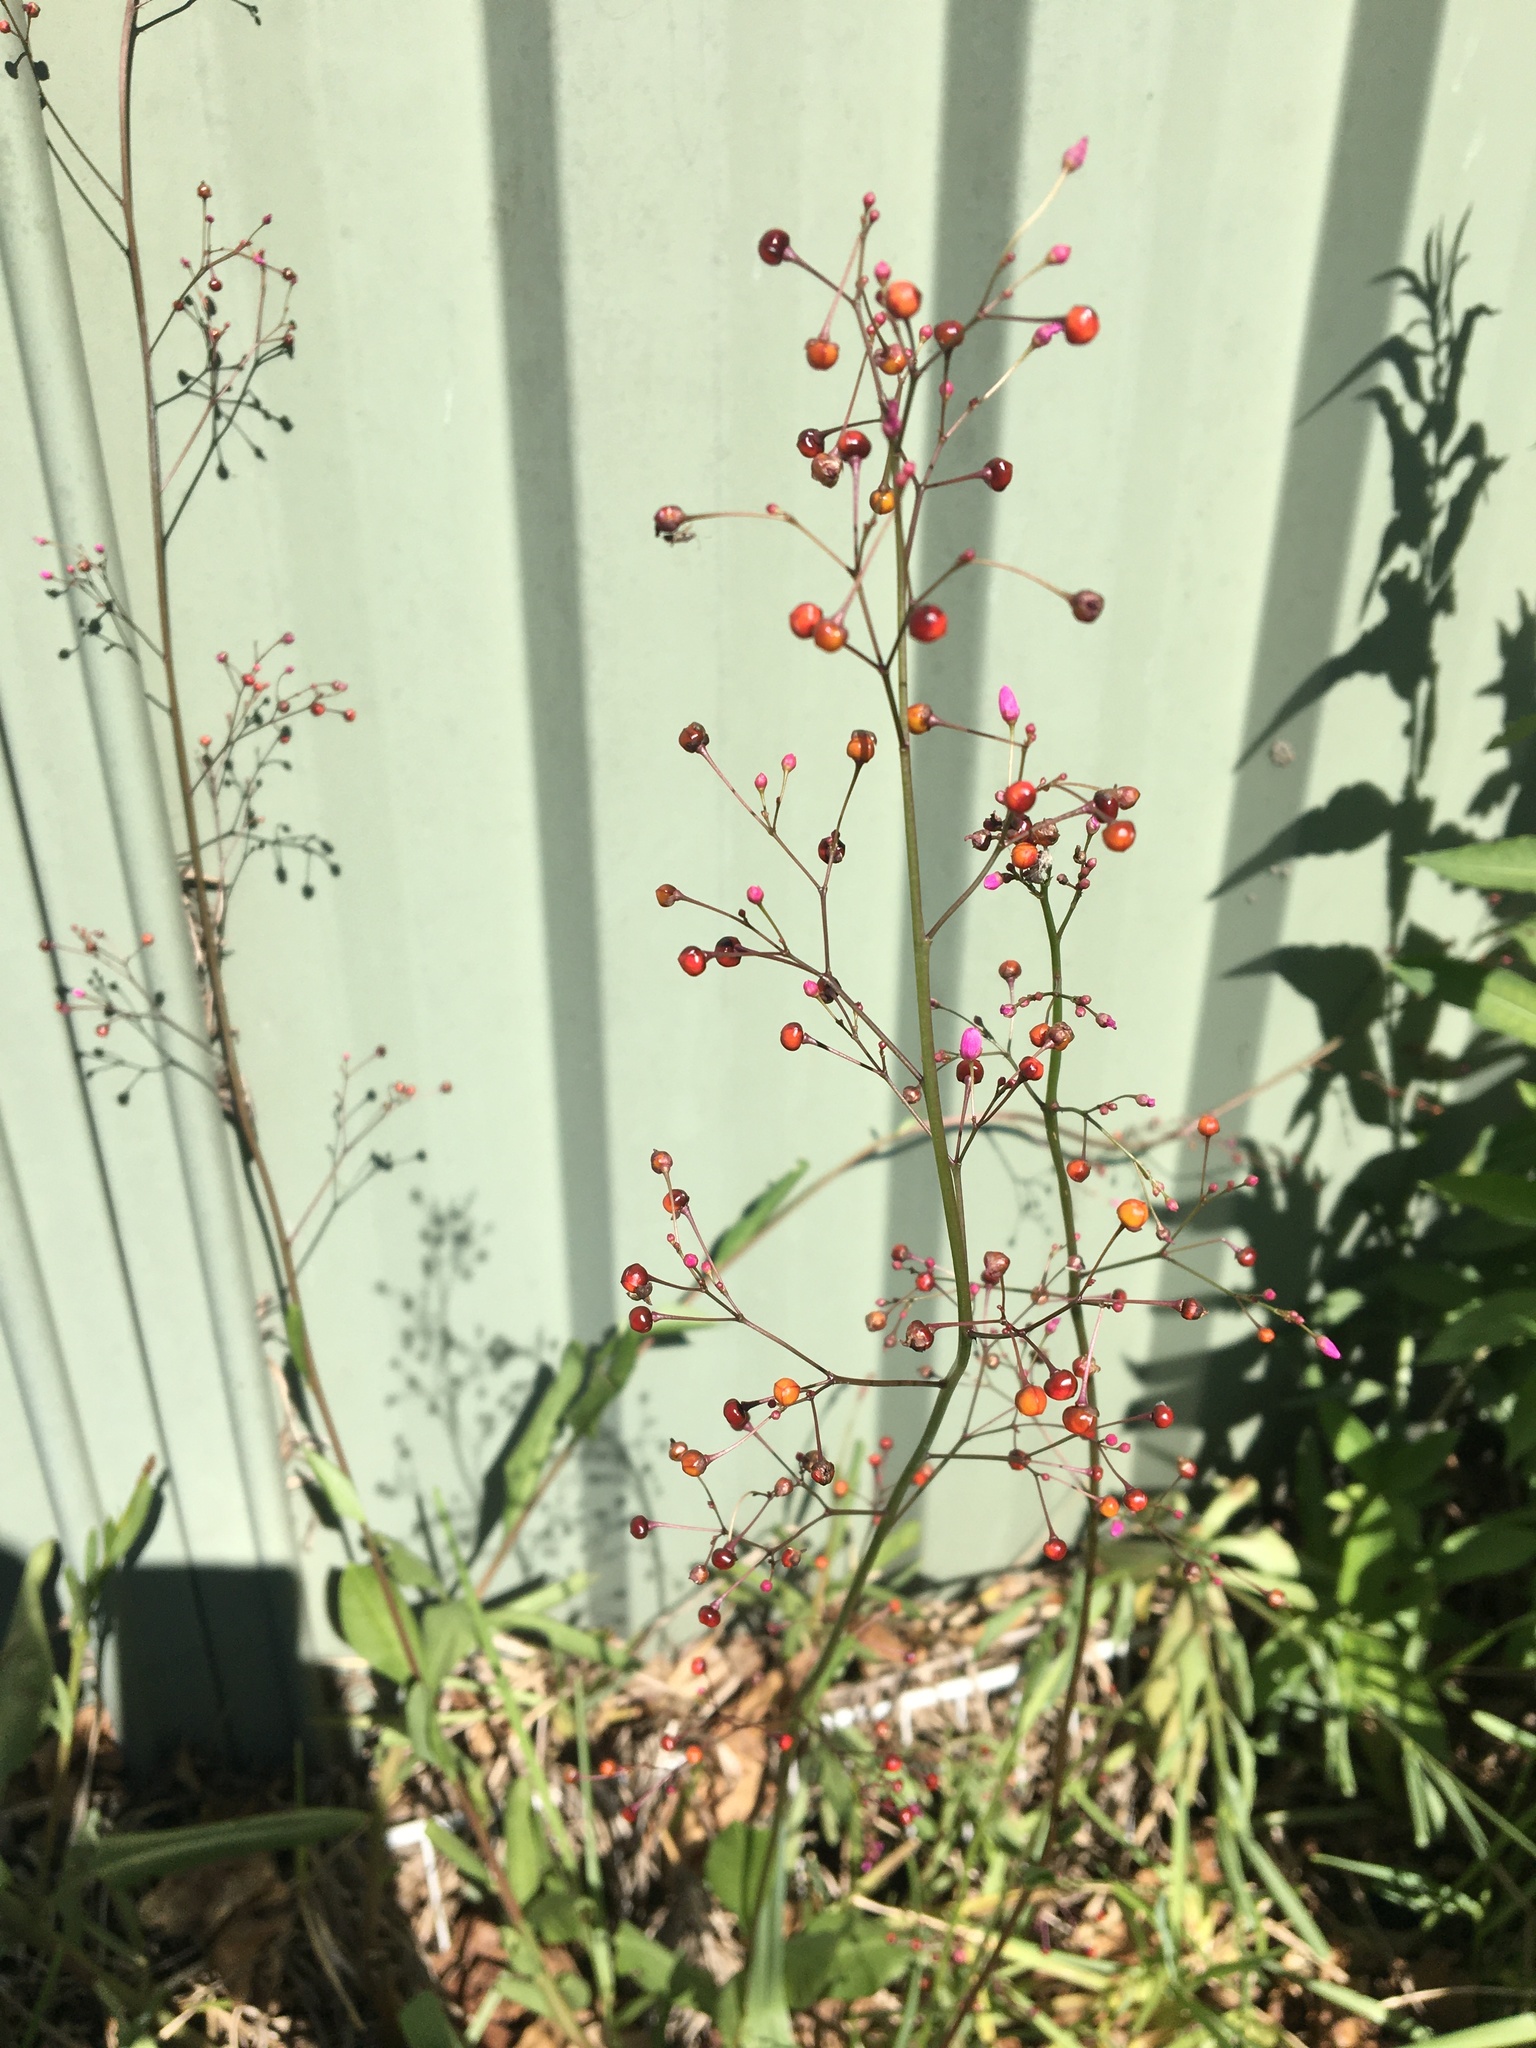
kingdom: Plantae
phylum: Tracheophyta
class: Magnoliopsida
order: Caryophyllales
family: Talinaceae
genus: Talinum
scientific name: Talinum paniculatum
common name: Jewels of opar
